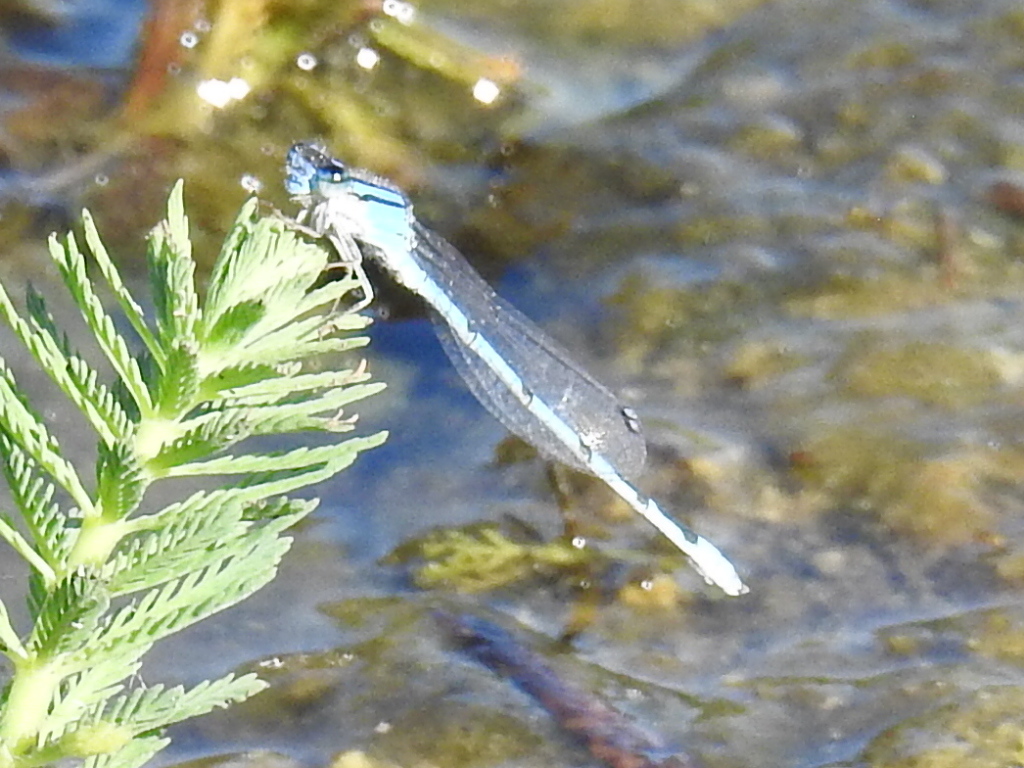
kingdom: Animalia
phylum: Arthropoda
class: Insecta
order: Odonata
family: Coenagrionidae
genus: Enallagma
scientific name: Enallagma civile
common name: Damselfly
